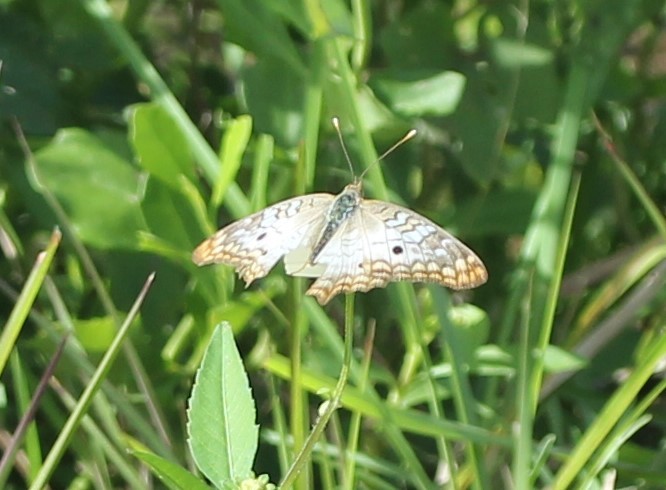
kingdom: Animalia
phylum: Arthropoda
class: Insecta
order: Lepidoptera
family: Nymphalidae
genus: Anartia
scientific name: Anartia jatrophae
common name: White peacock
